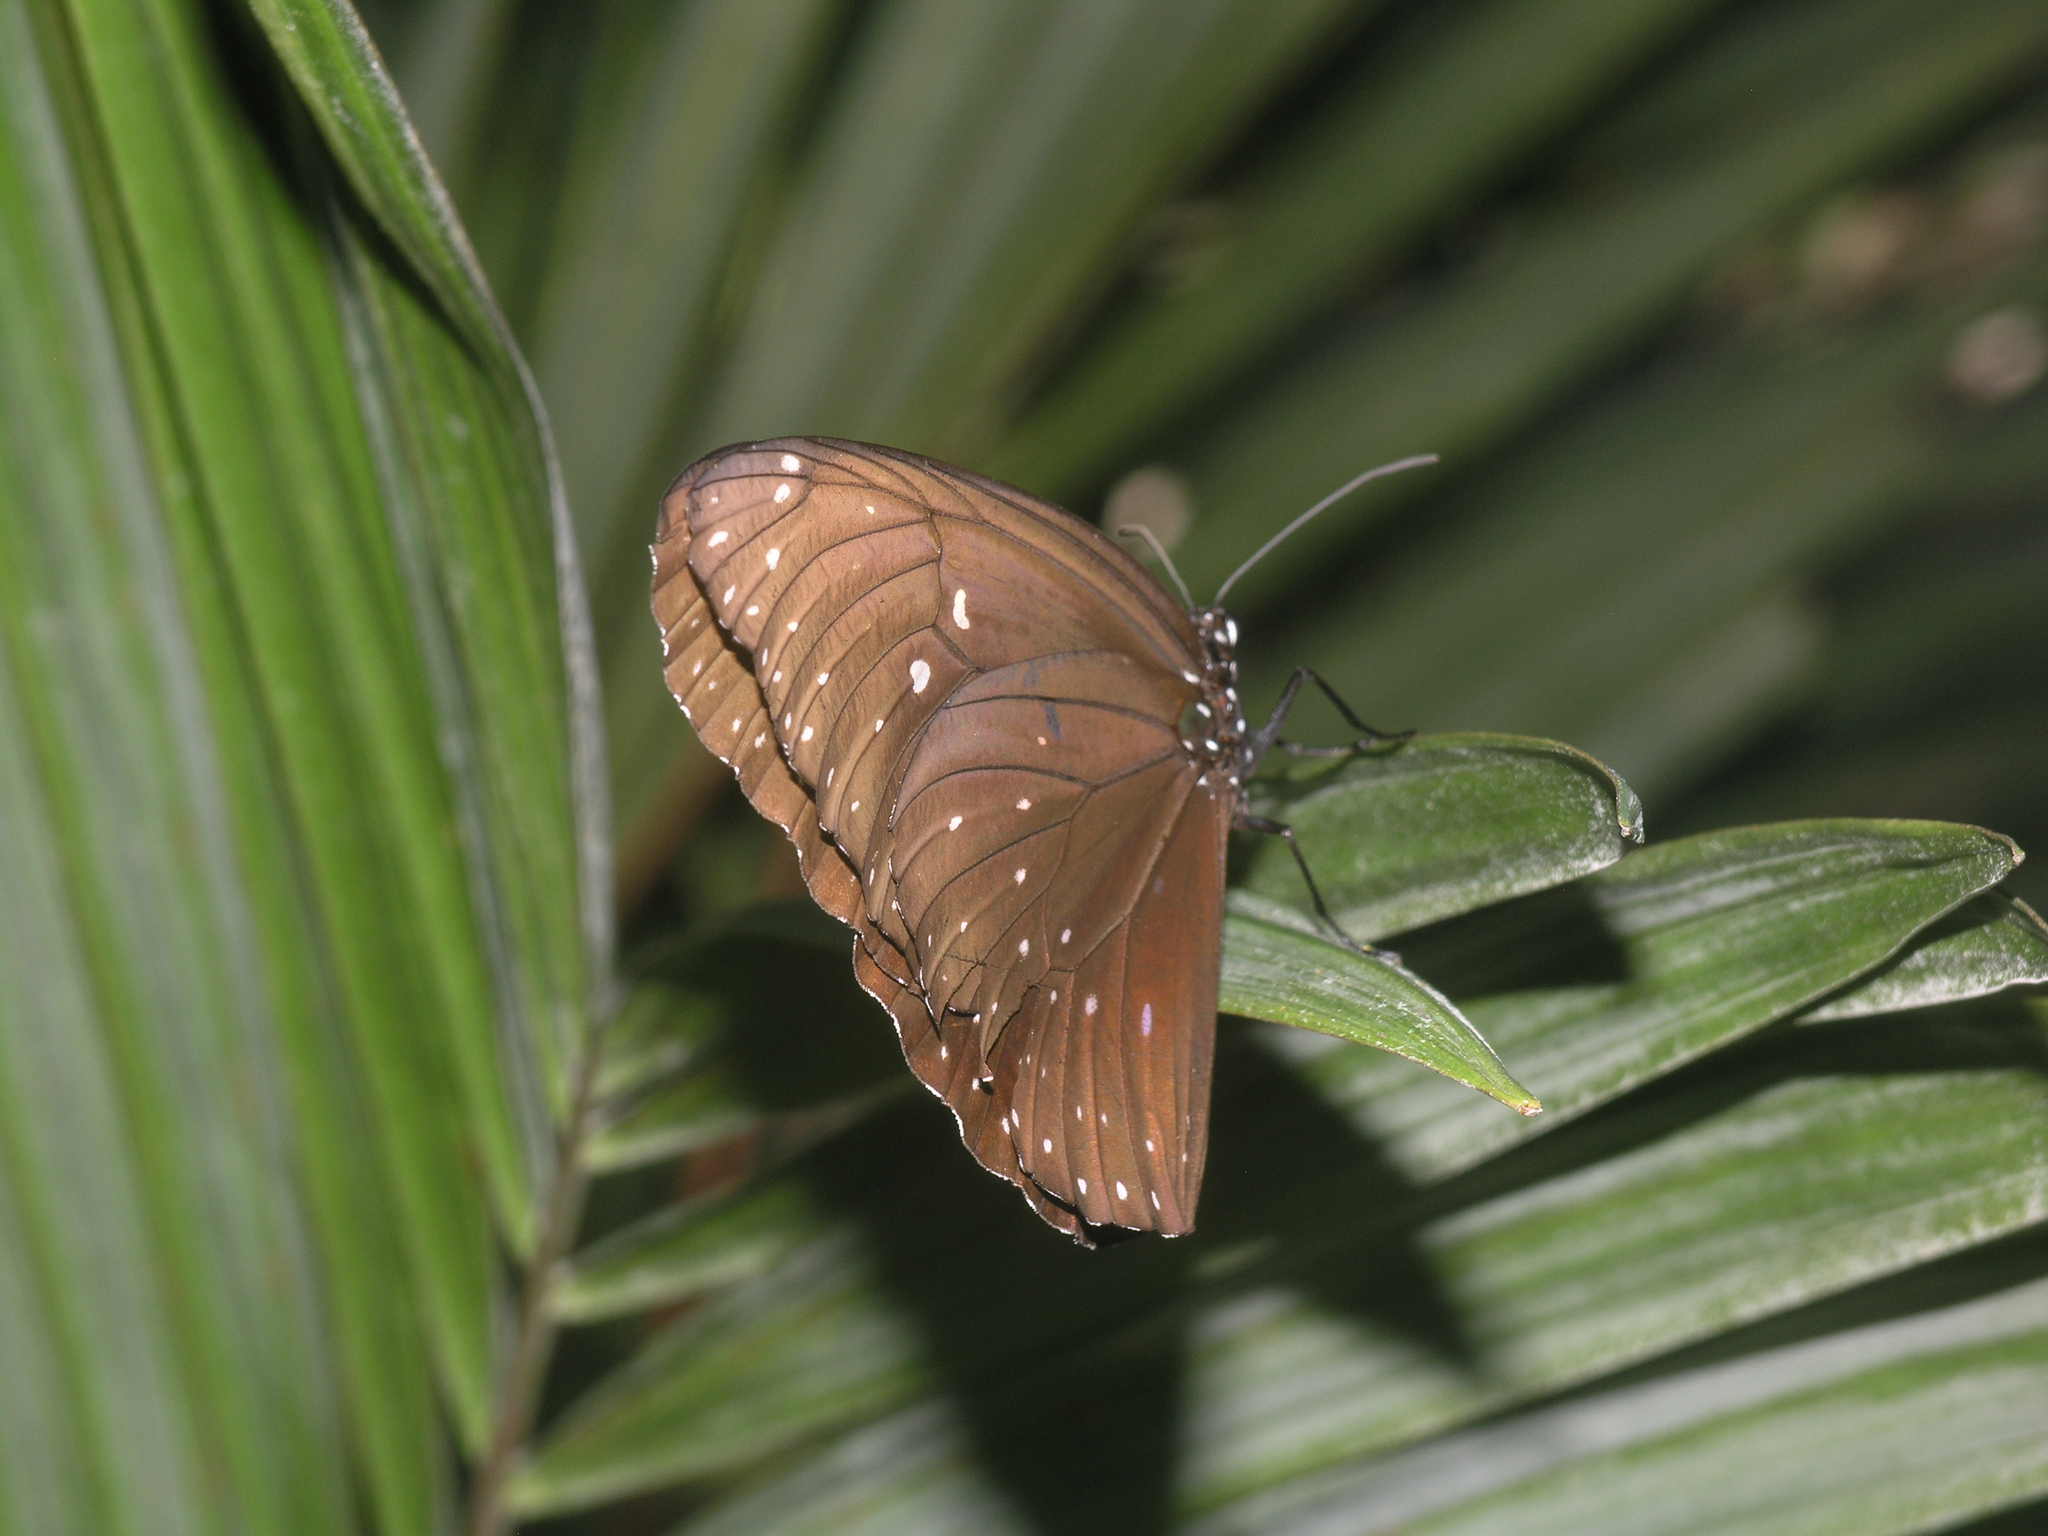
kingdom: Animalia
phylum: Arthropoda
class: Insecta
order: Lepidoptera
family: Nymphalidae
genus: Euploea
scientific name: Euploea phaenareta
